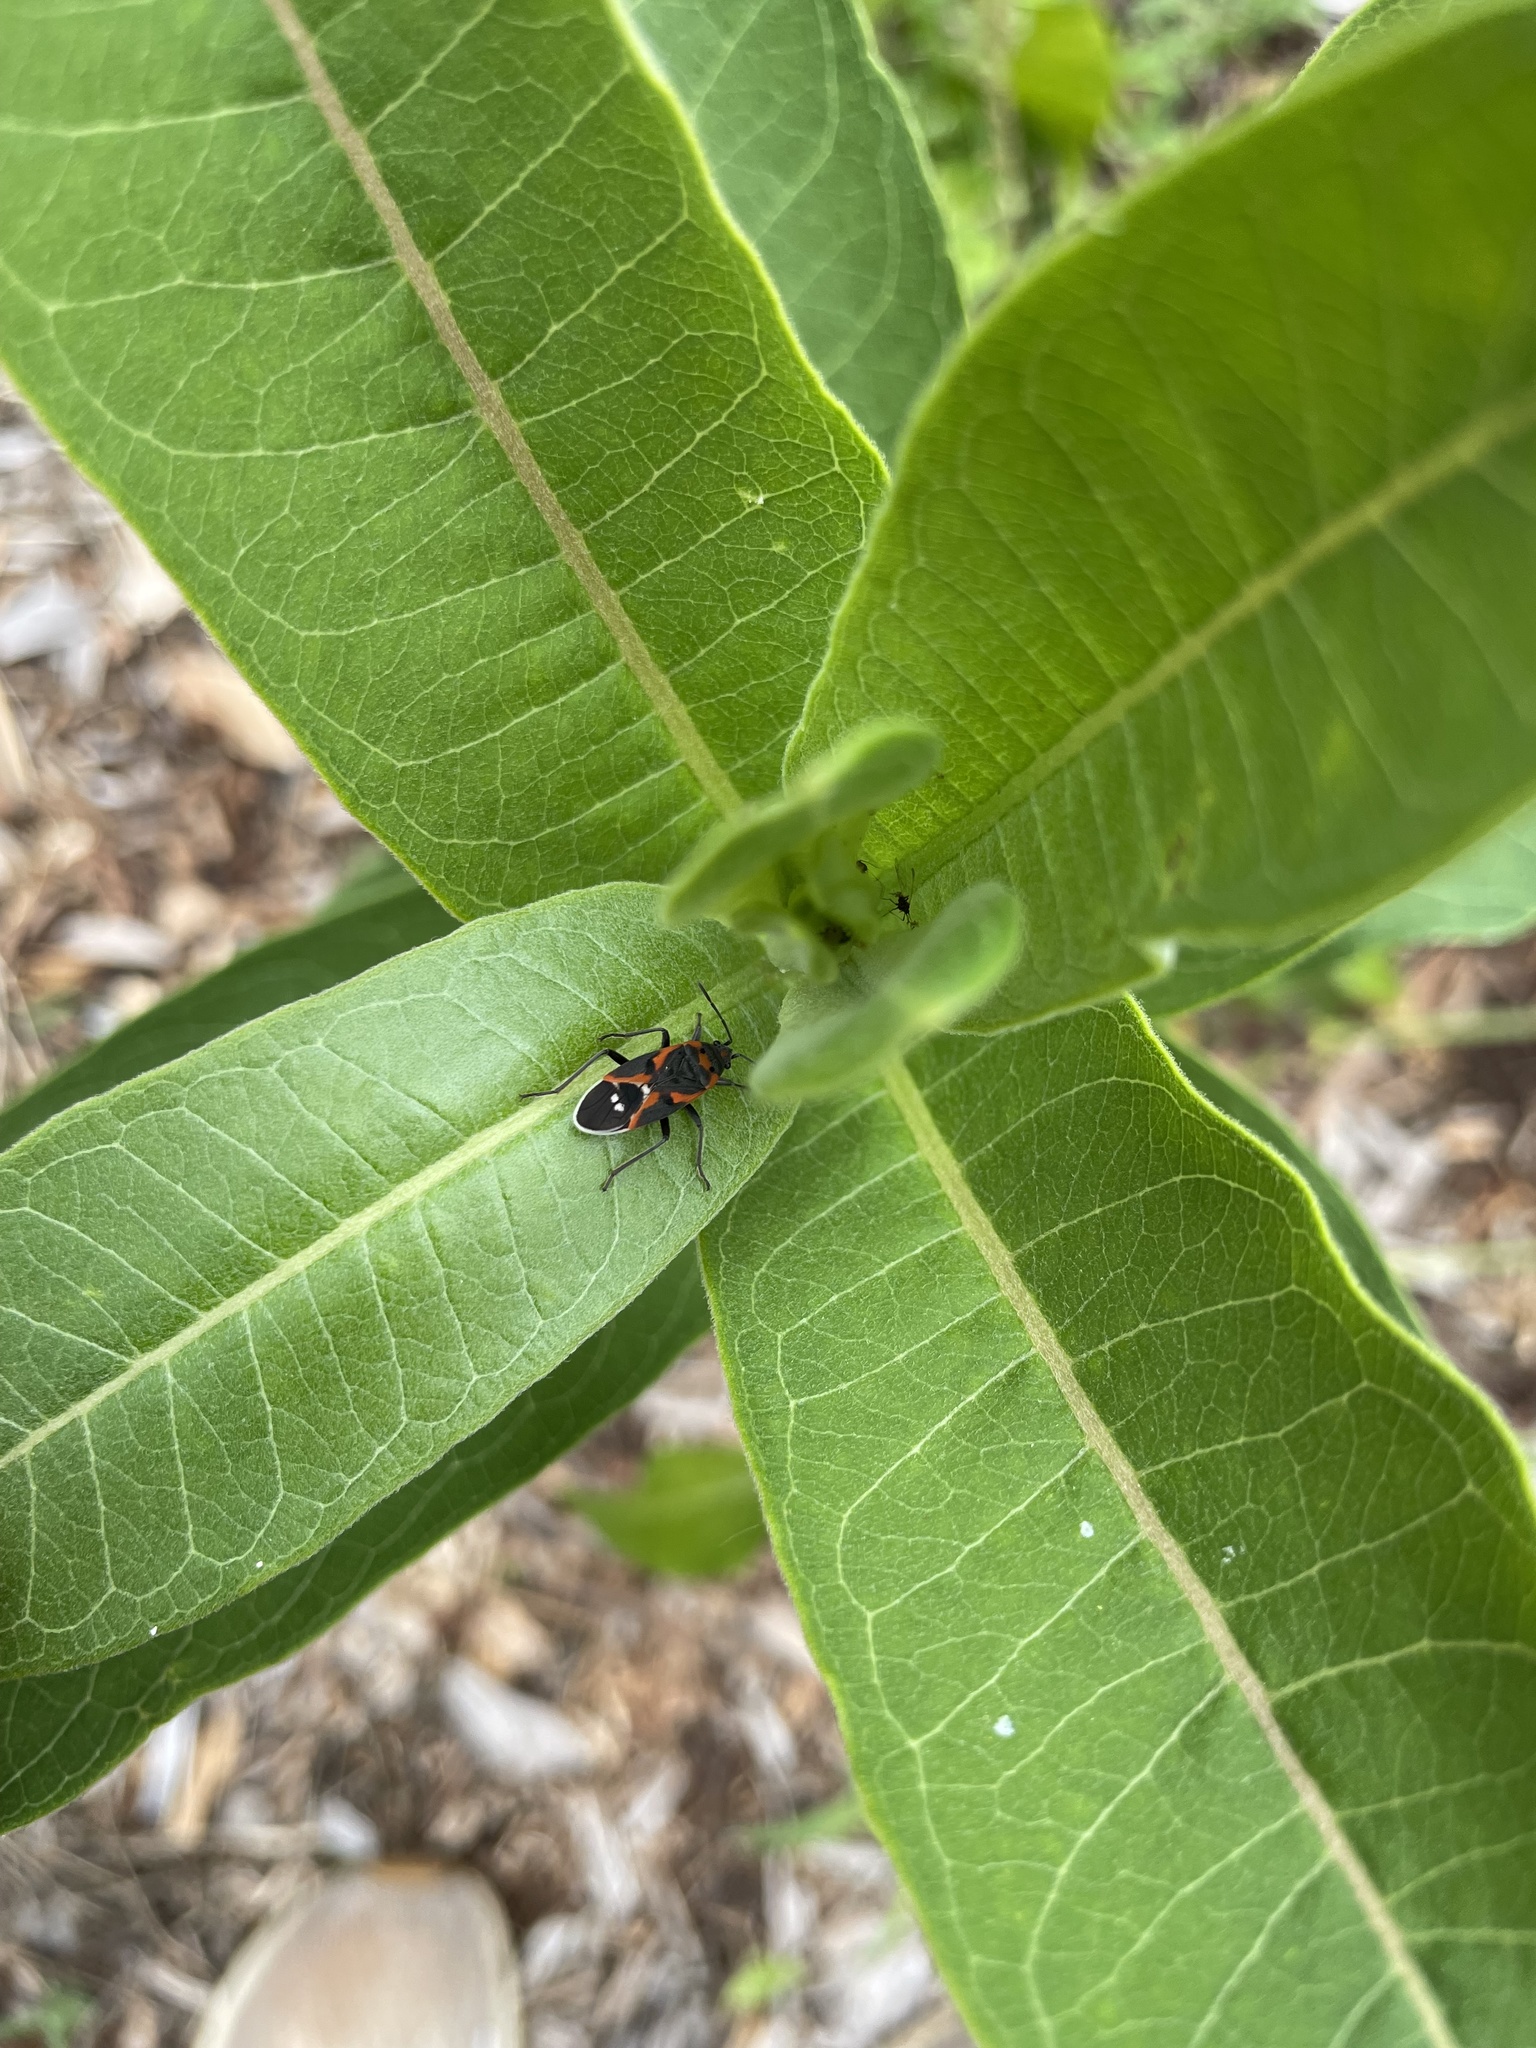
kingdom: Animalia
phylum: Arthropoda
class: Insecta
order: Hemiptera
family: Lygaeidae
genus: Lygaeus
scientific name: Lygaeus kalmii
